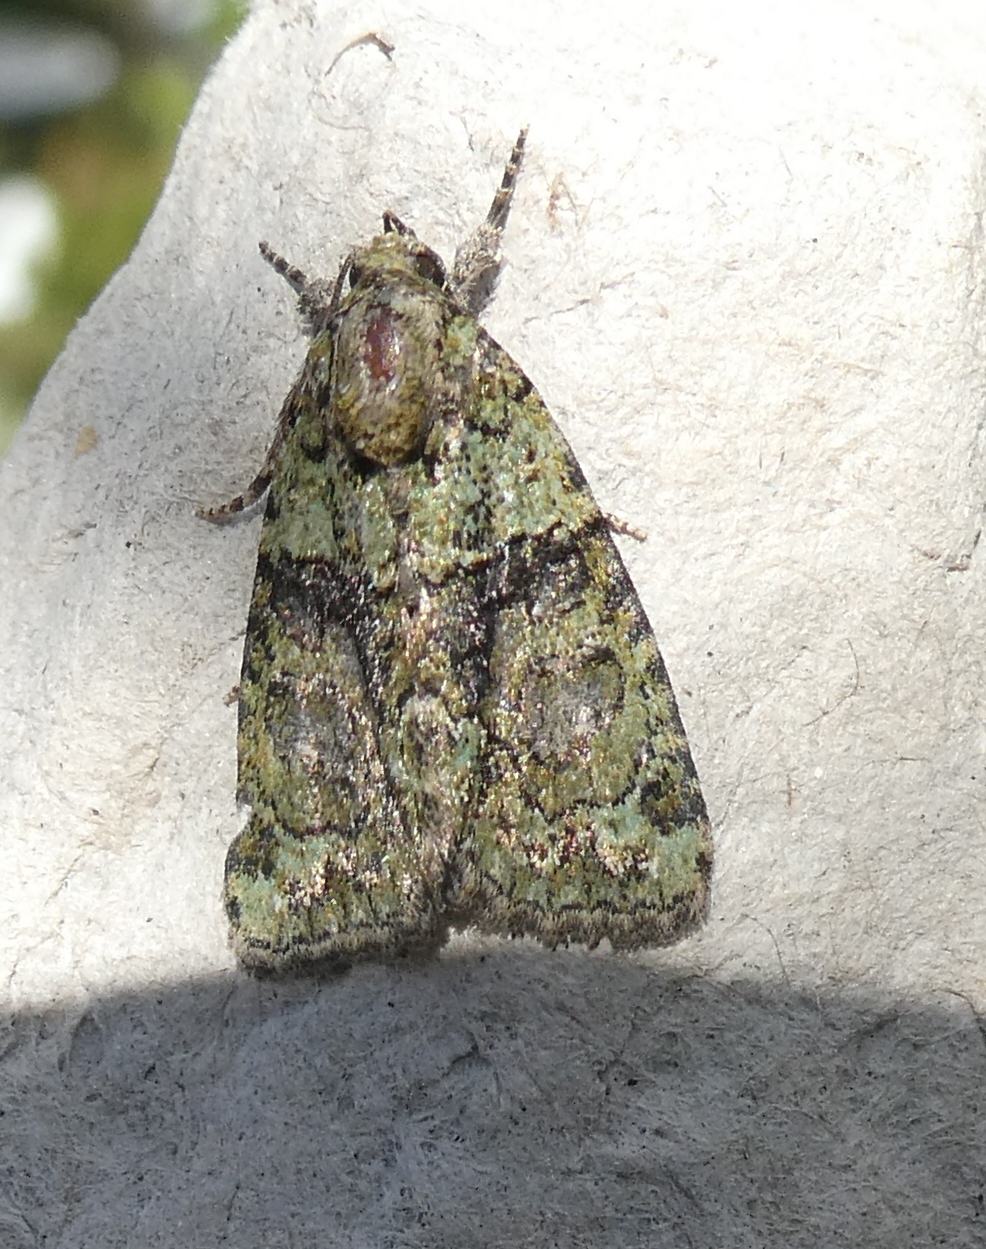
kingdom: Animalia
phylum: Arthropoda
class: Insecta
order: Lepidoptera
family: Noctuidae
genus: Cryphia
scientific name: Cryphia algae
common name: Tree-lichen beauty
